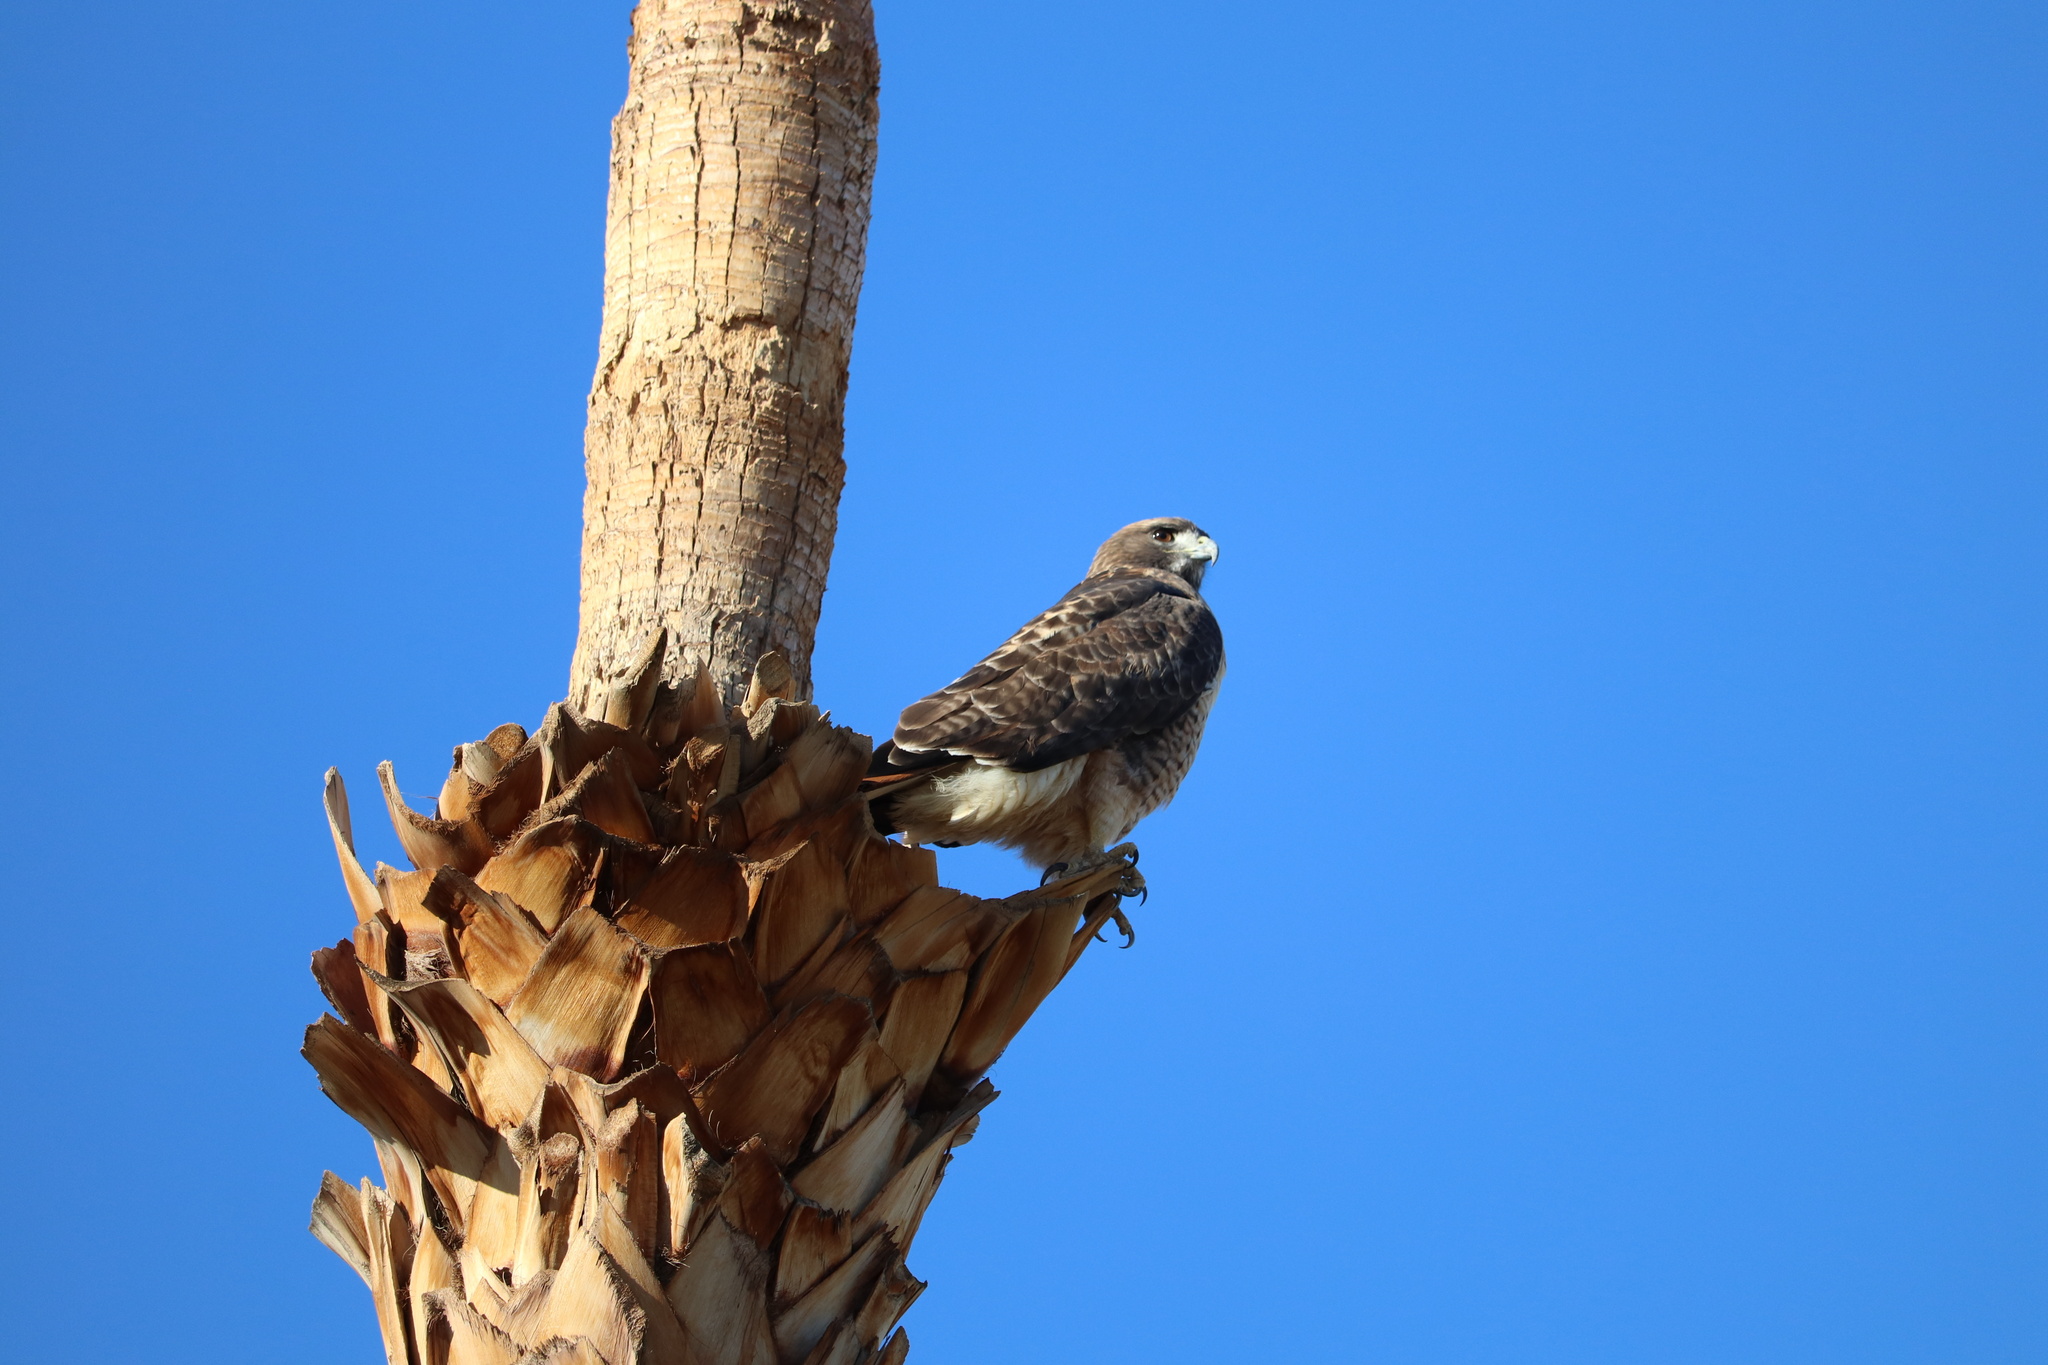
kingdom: Animalia
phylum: Chordata
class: Aves
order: Accipitriformes
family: Accipitridae
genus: Buteo
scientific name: Buteo jamaicensis
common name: Red-tailed hawk
